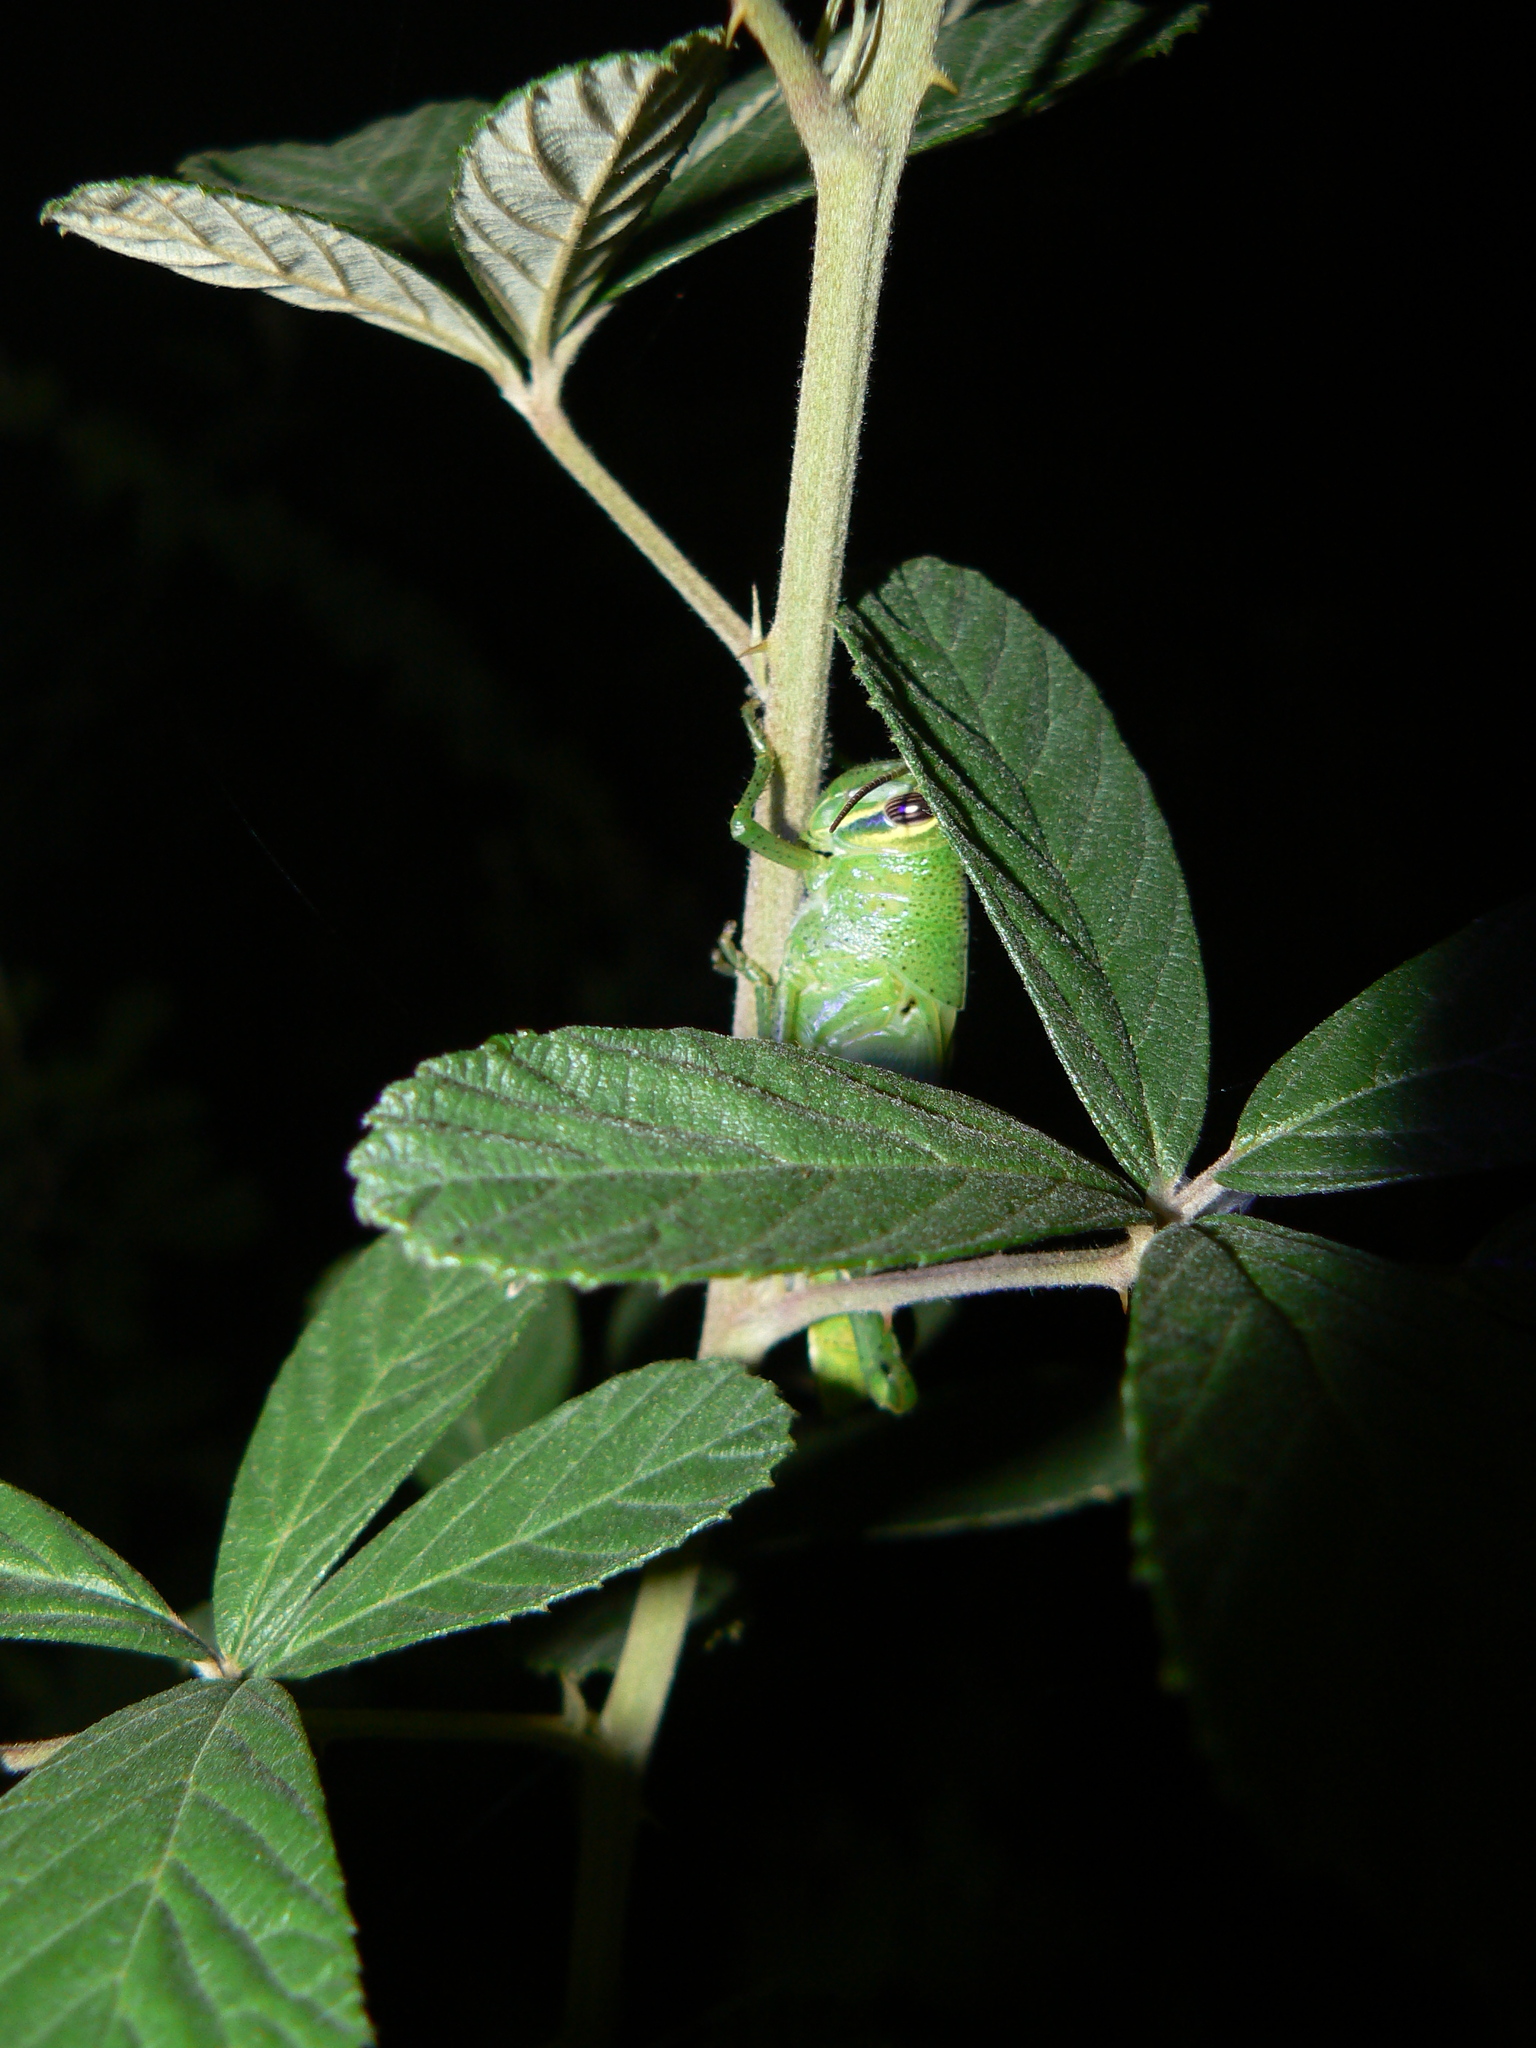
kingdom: Animalia
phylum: Arthropoda
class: Insecta
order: Orthoptera
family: Acrididae
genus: Schistocerca
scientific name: Schistocerca americana
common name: American bird locust
